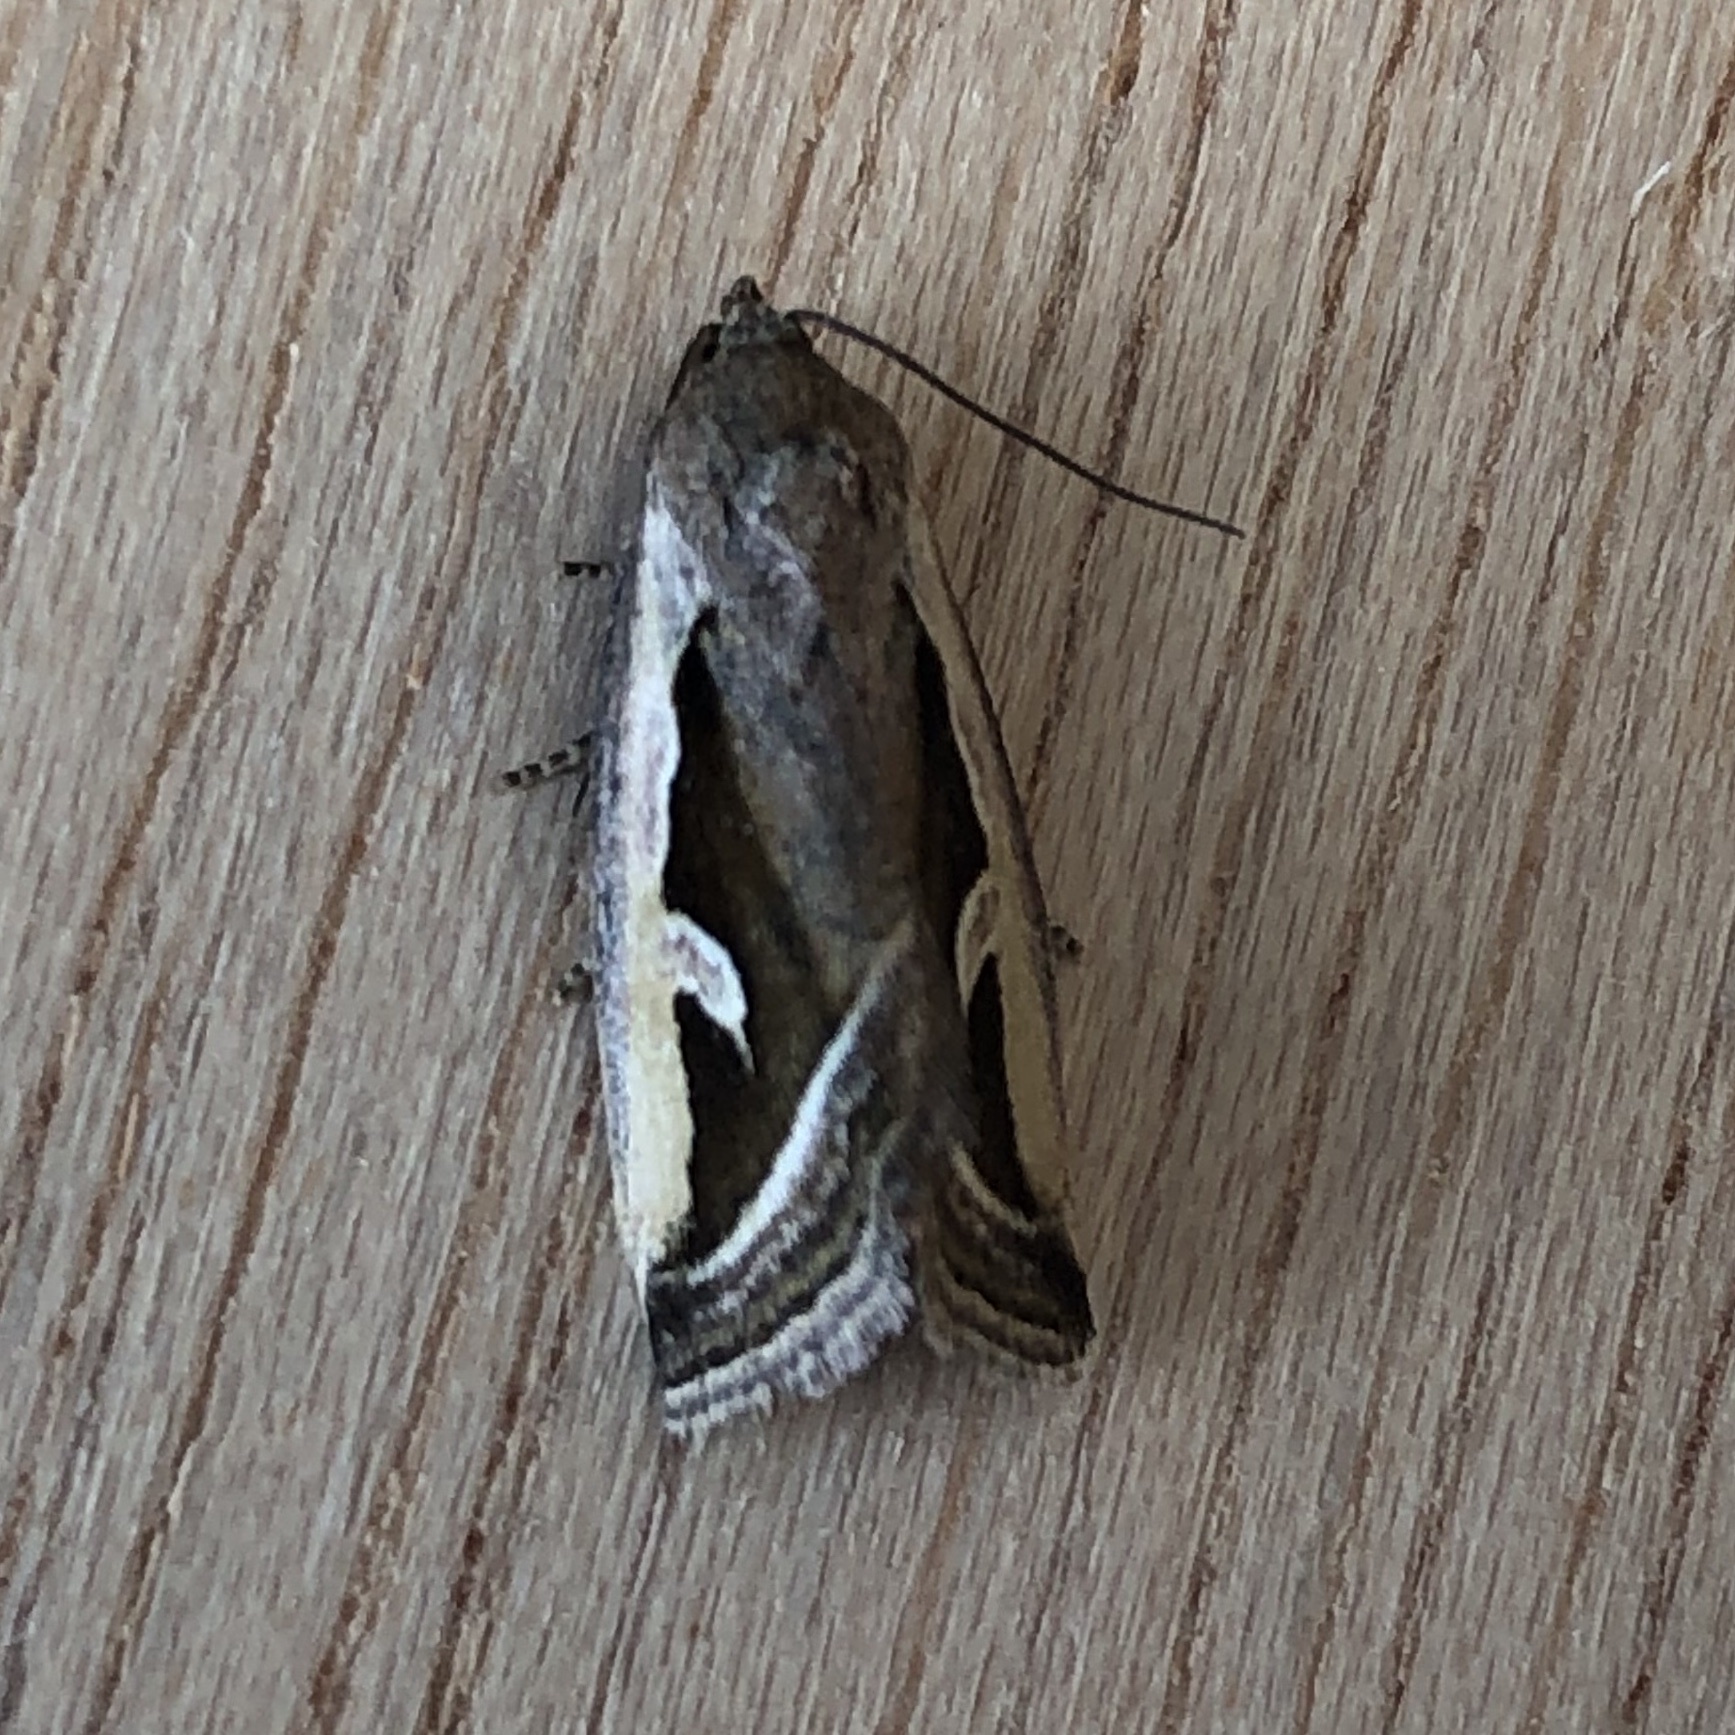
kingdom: Animalia
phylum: Arthropoda
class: Insecta
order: Lepidoptera
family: Noctuidae
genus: Deltote
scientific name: Deltote uncula
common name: Silver hook
